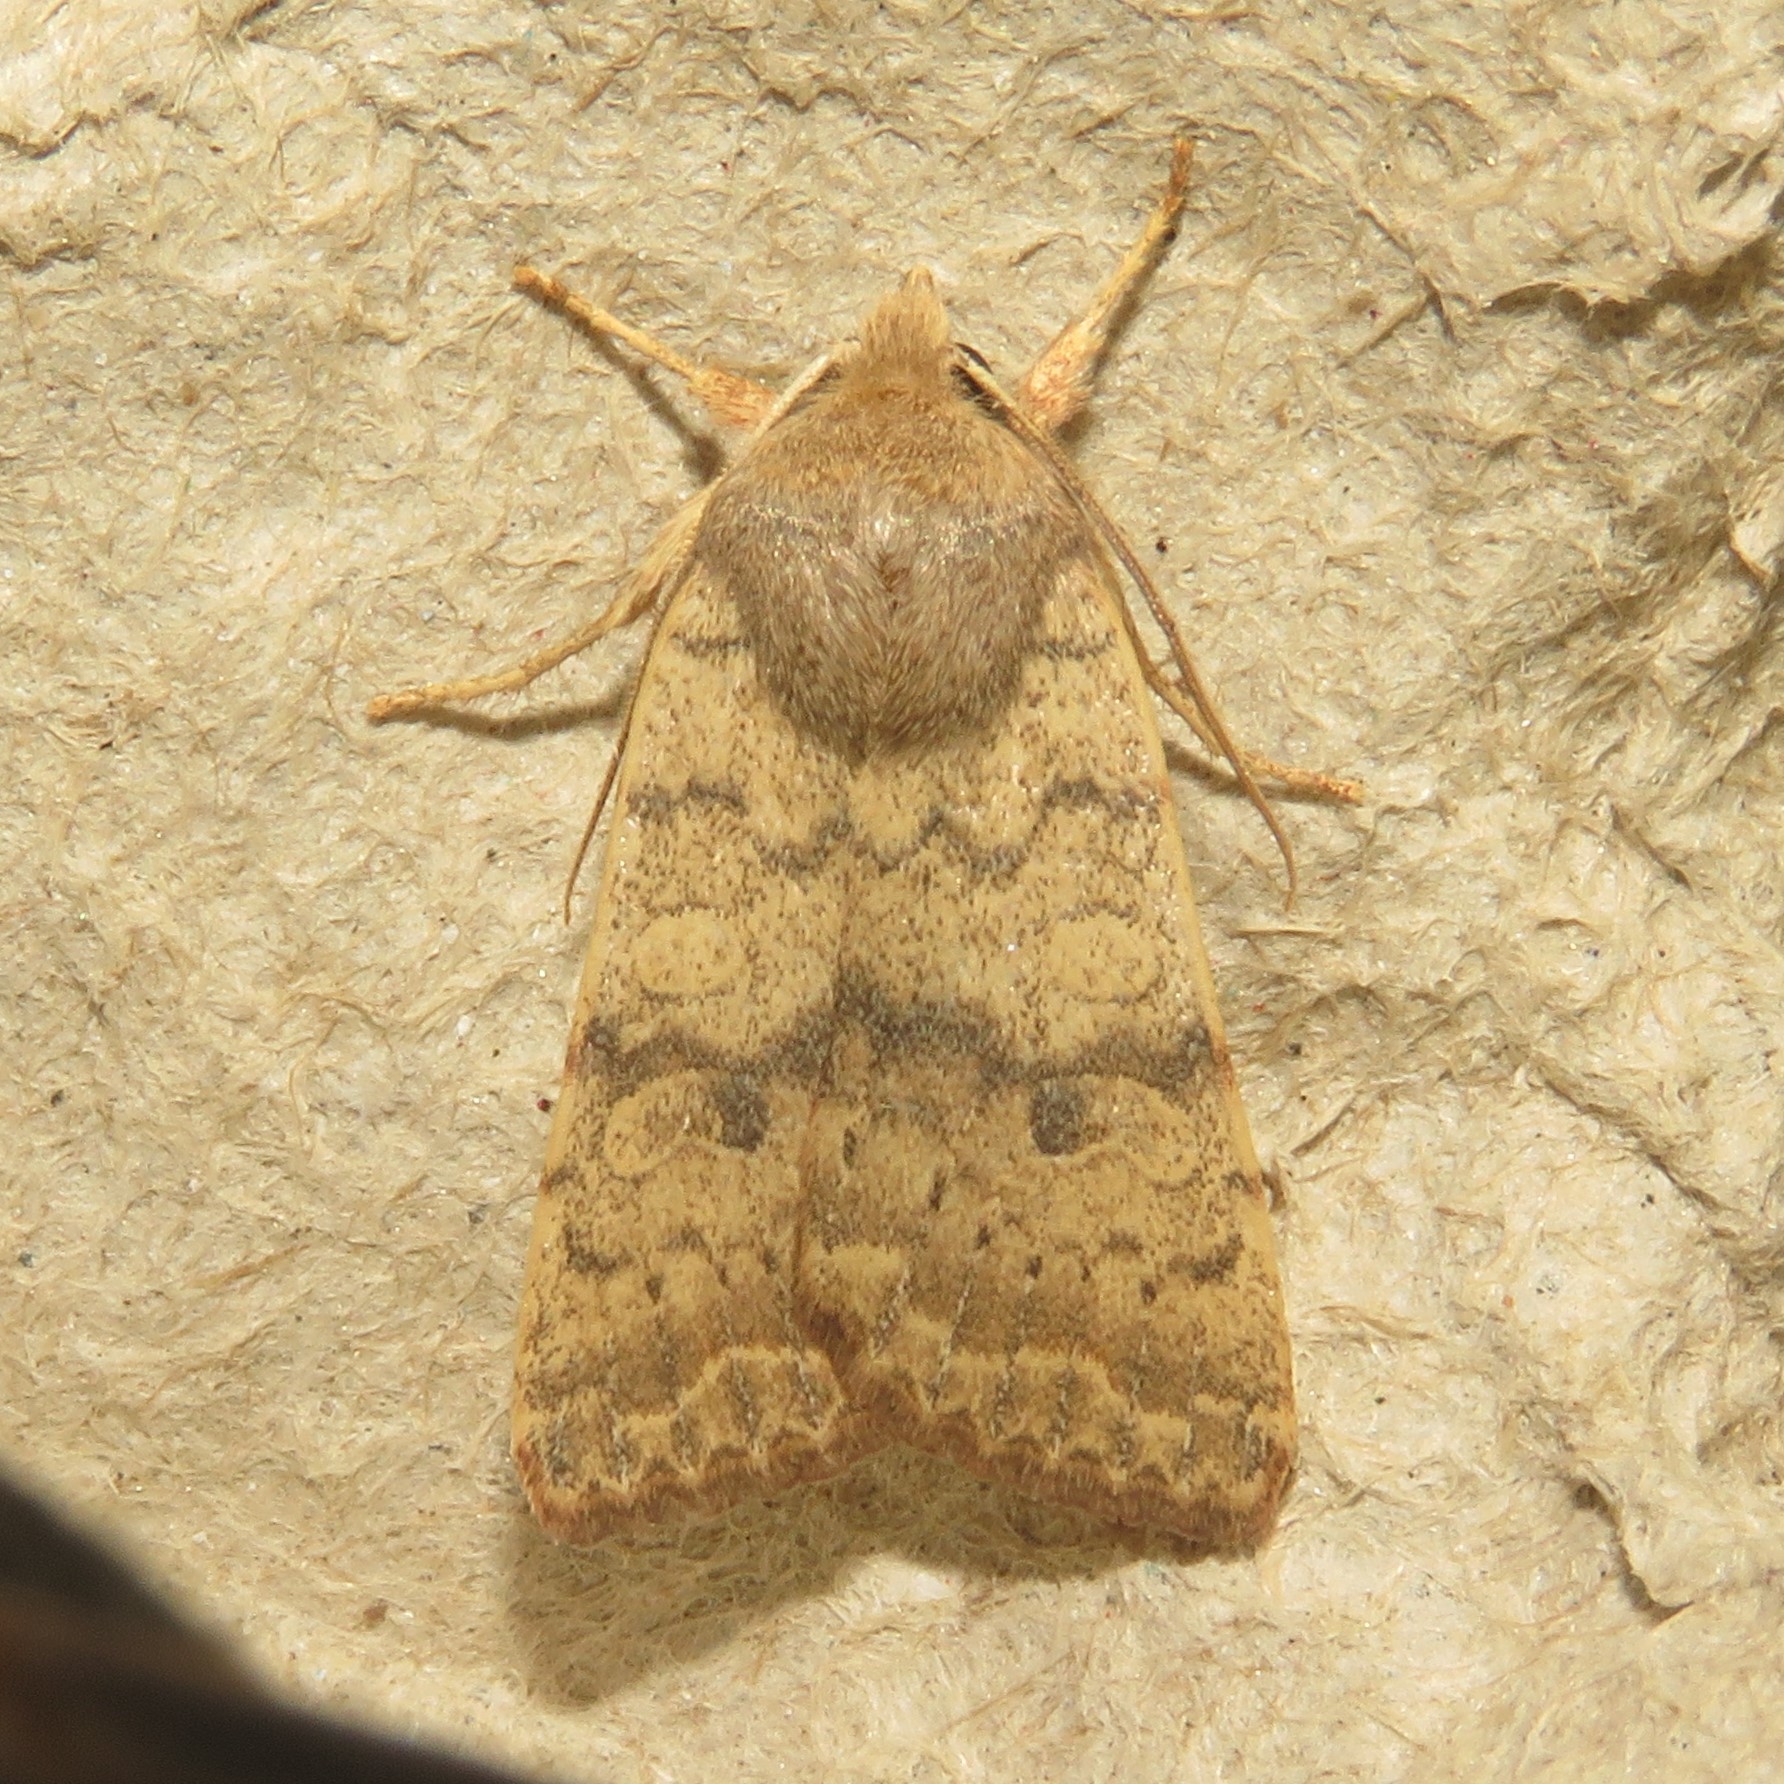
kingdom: Animalia
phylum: Arthropoda
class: Insecta
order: Lepidoptera
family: Noctuidae
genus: Agrochola
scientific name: Agrochola bicolorago
